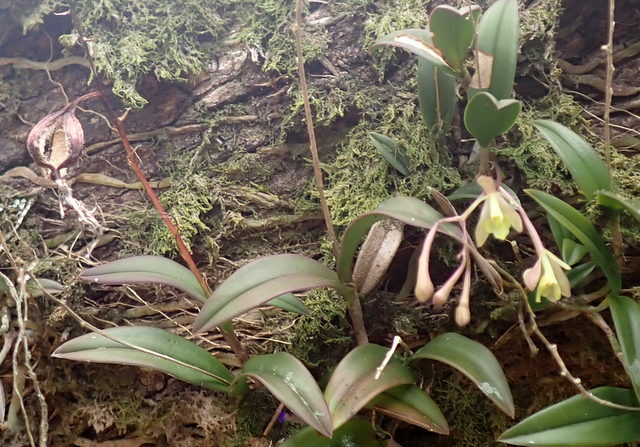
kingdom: Plantae
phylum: Tracheophyta
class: Liliopsida
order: Asparagales
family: Orchidaceae
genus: Epidendrum
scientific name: Epidendrum conopseum
